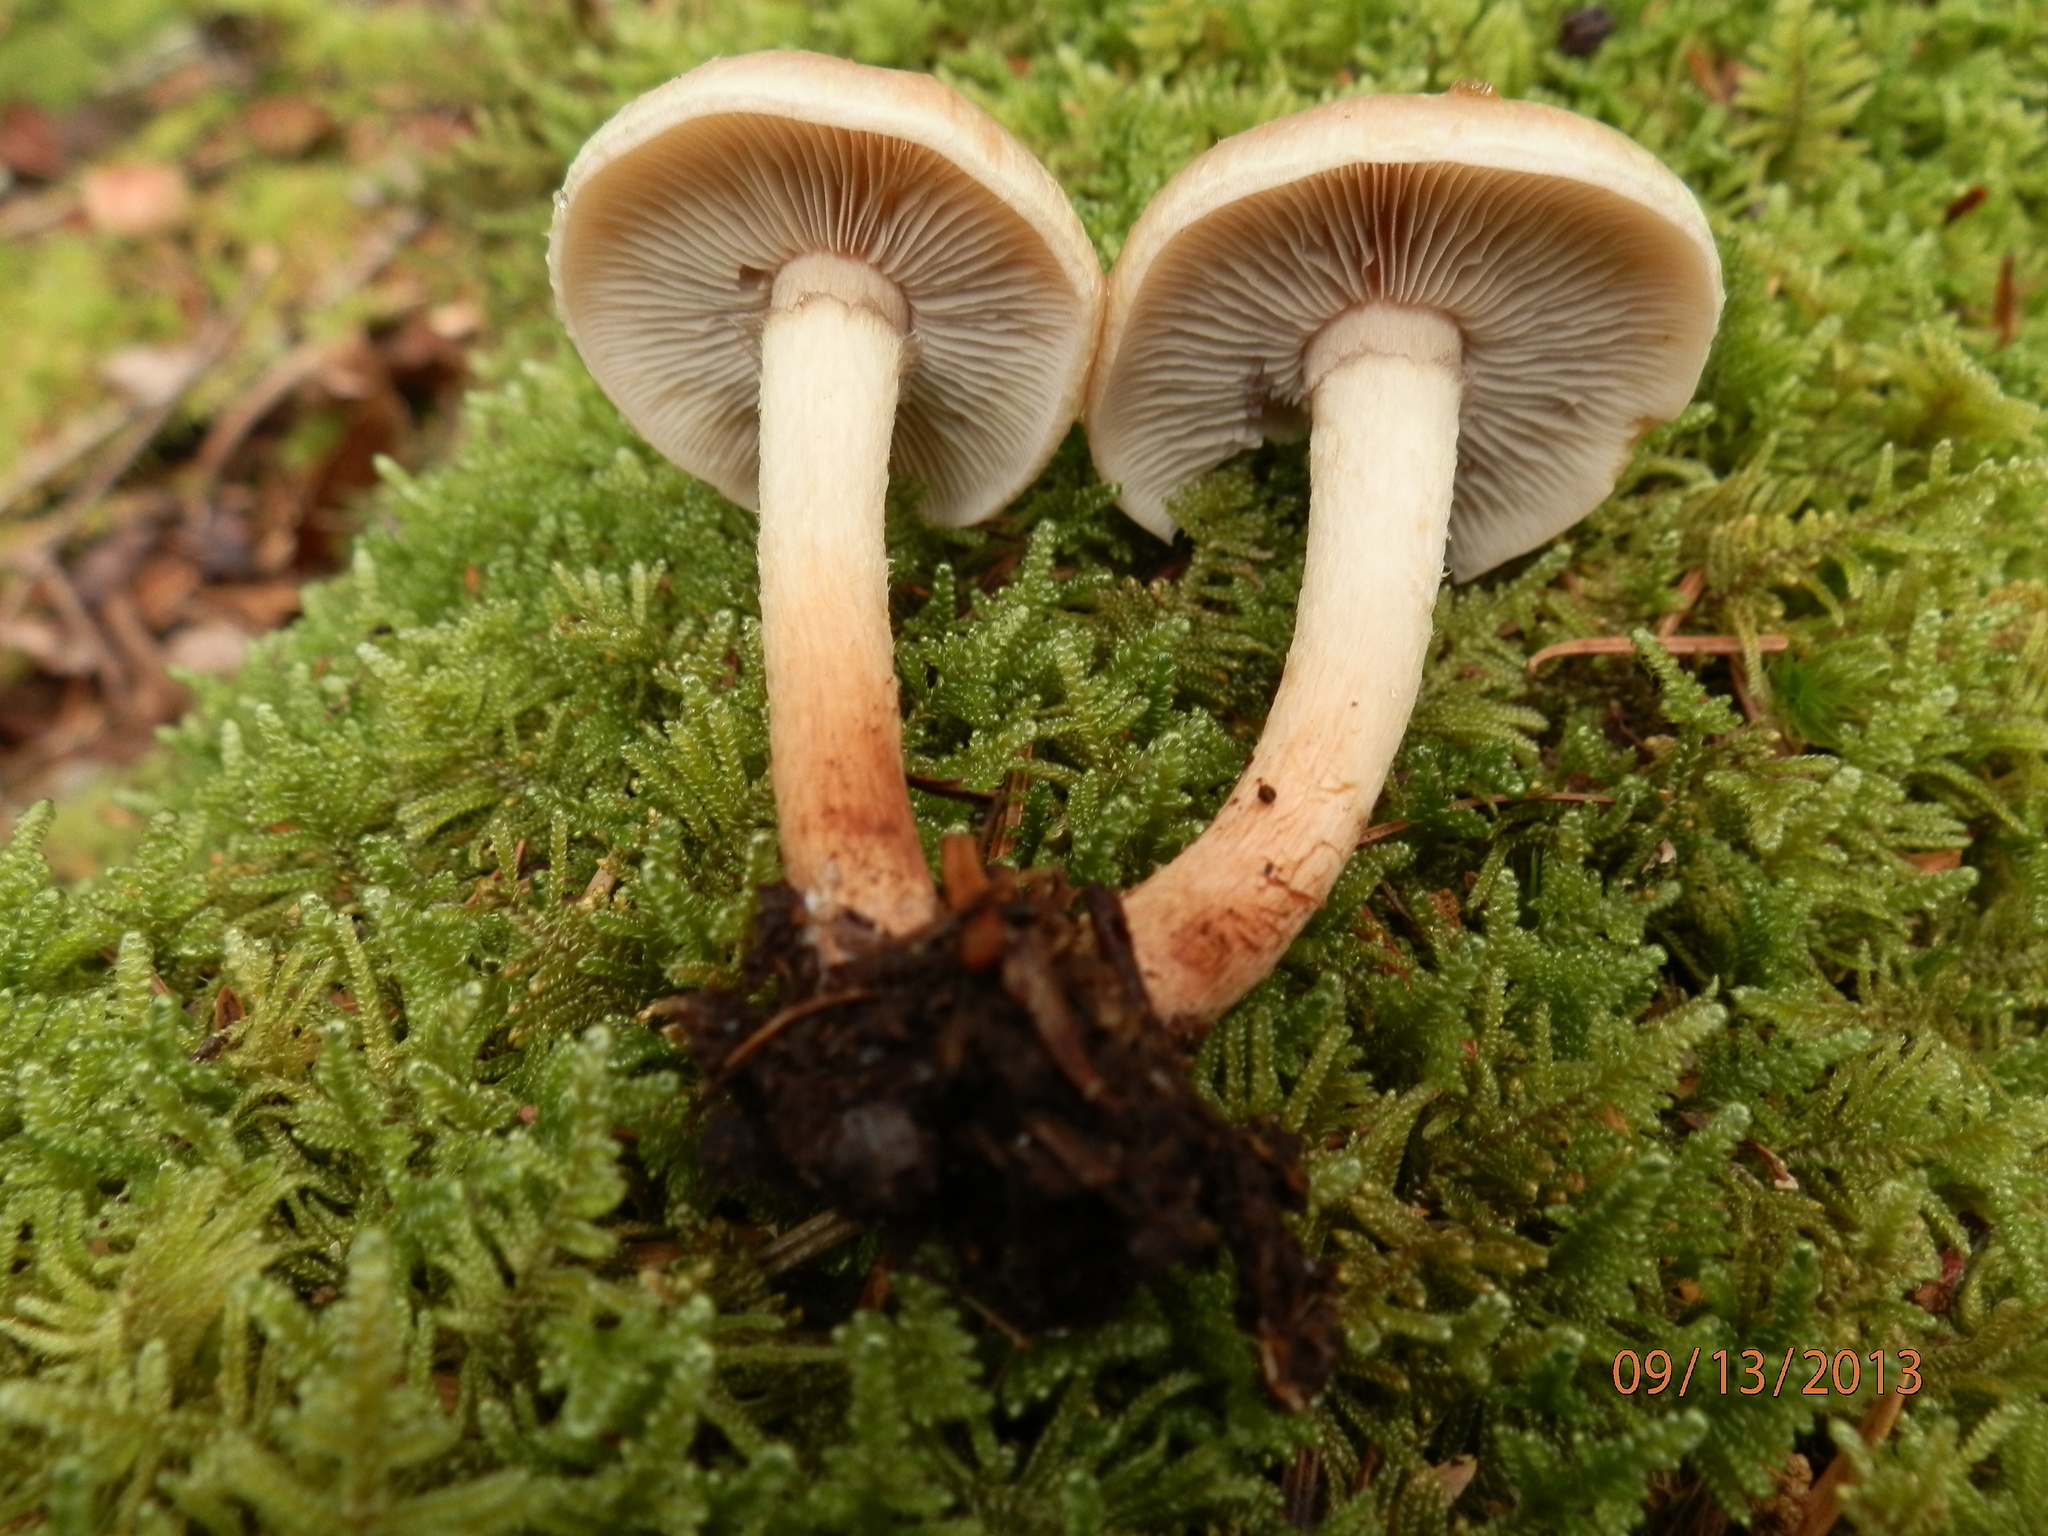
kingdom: Fungi
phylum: Basidiomycota
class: Agaricomycetes
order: Agaricales
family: Strophariaceae
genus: Hypholoma
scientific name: Hypholoma lateritium
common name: Brick caps
